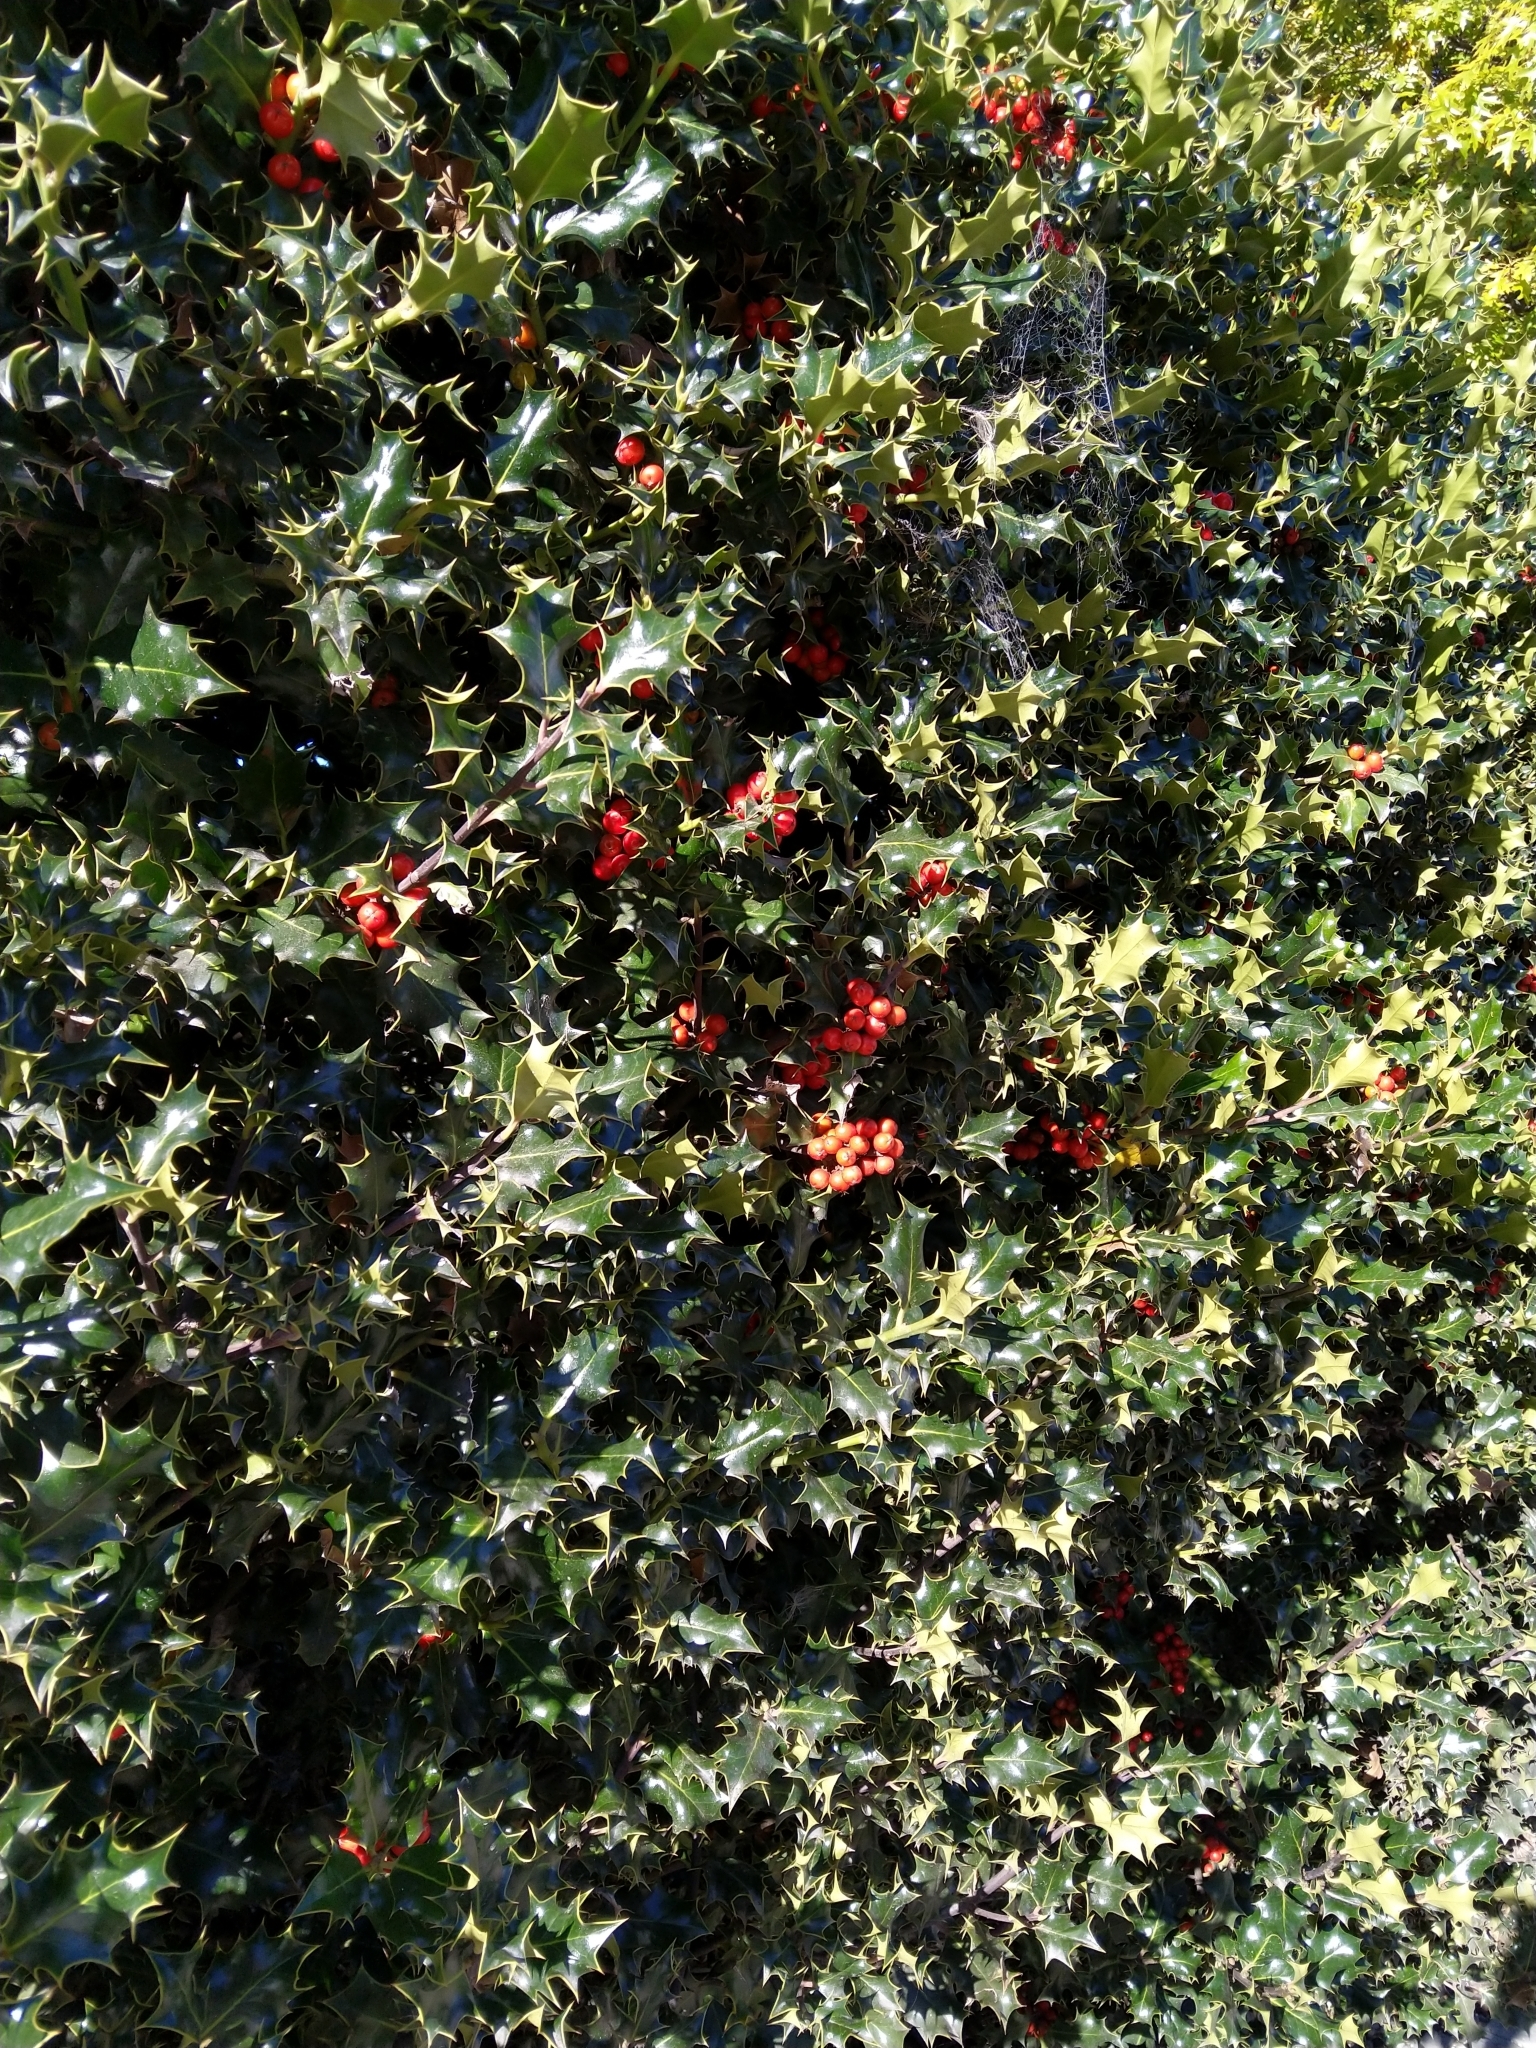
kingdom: Plantae
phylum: Tracheophyta
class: Magnoliopsida
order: Aquifoliales
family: Aquifoliaceae
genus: Ilex
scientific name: Ilex aquifolium
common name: English holly
